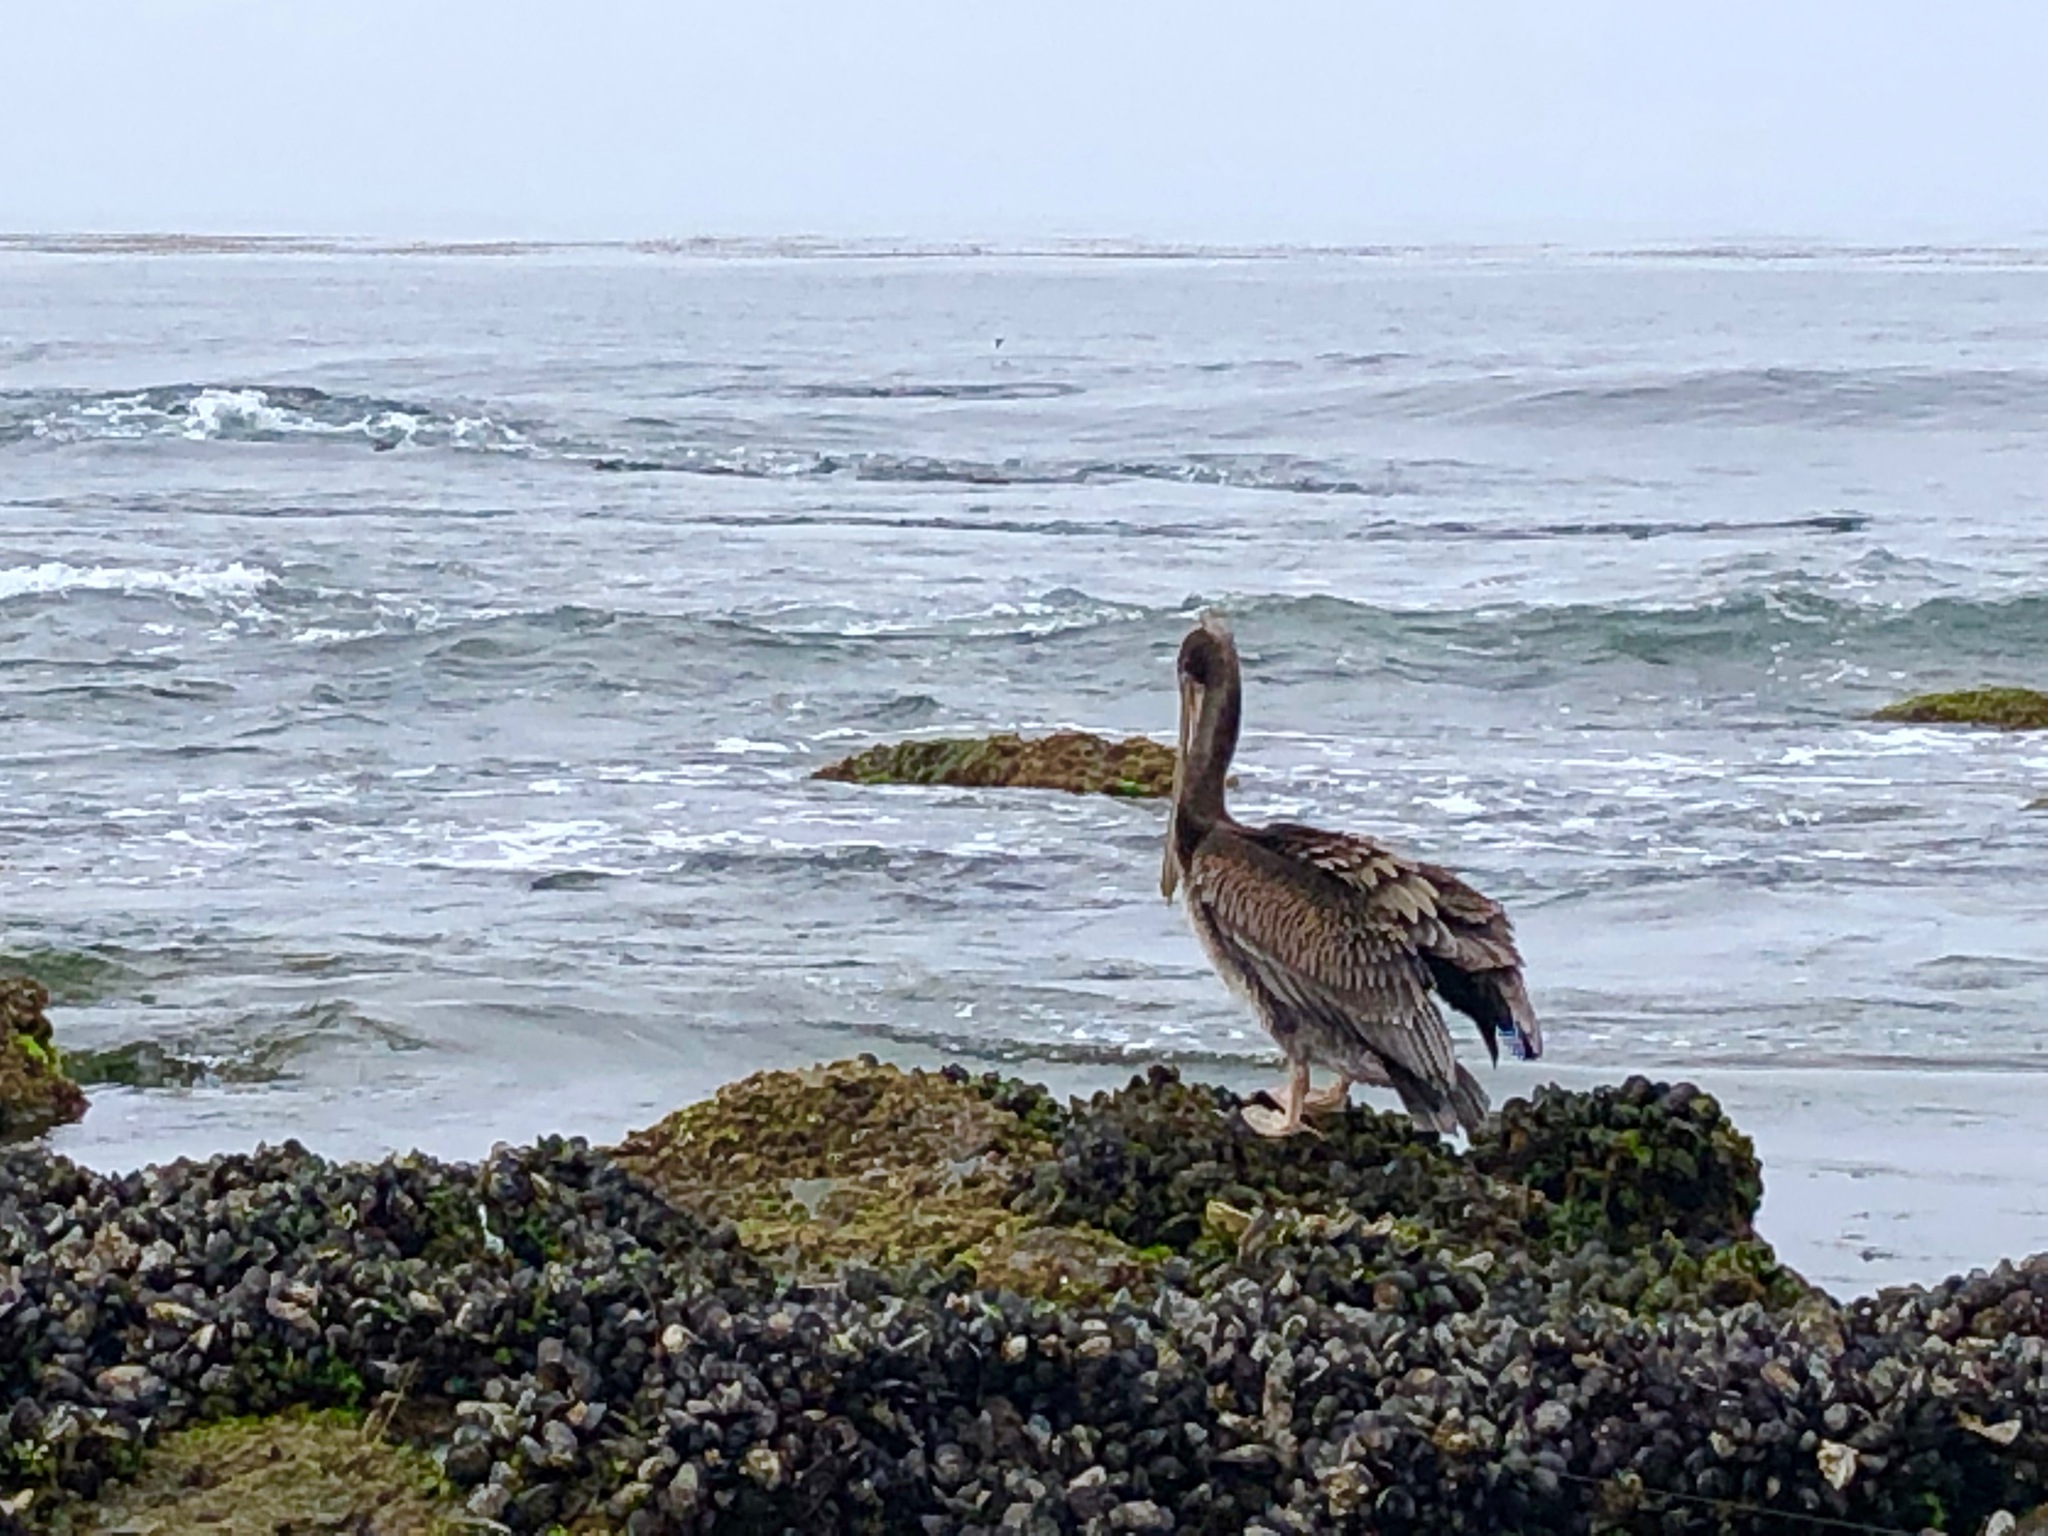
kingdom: Animalia
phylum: Chordata
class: Aves
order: Pelecaniformes
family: Pelecanidae
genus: Pelecanus
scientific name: Pelecanus occidentalis
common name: Brown pelican
